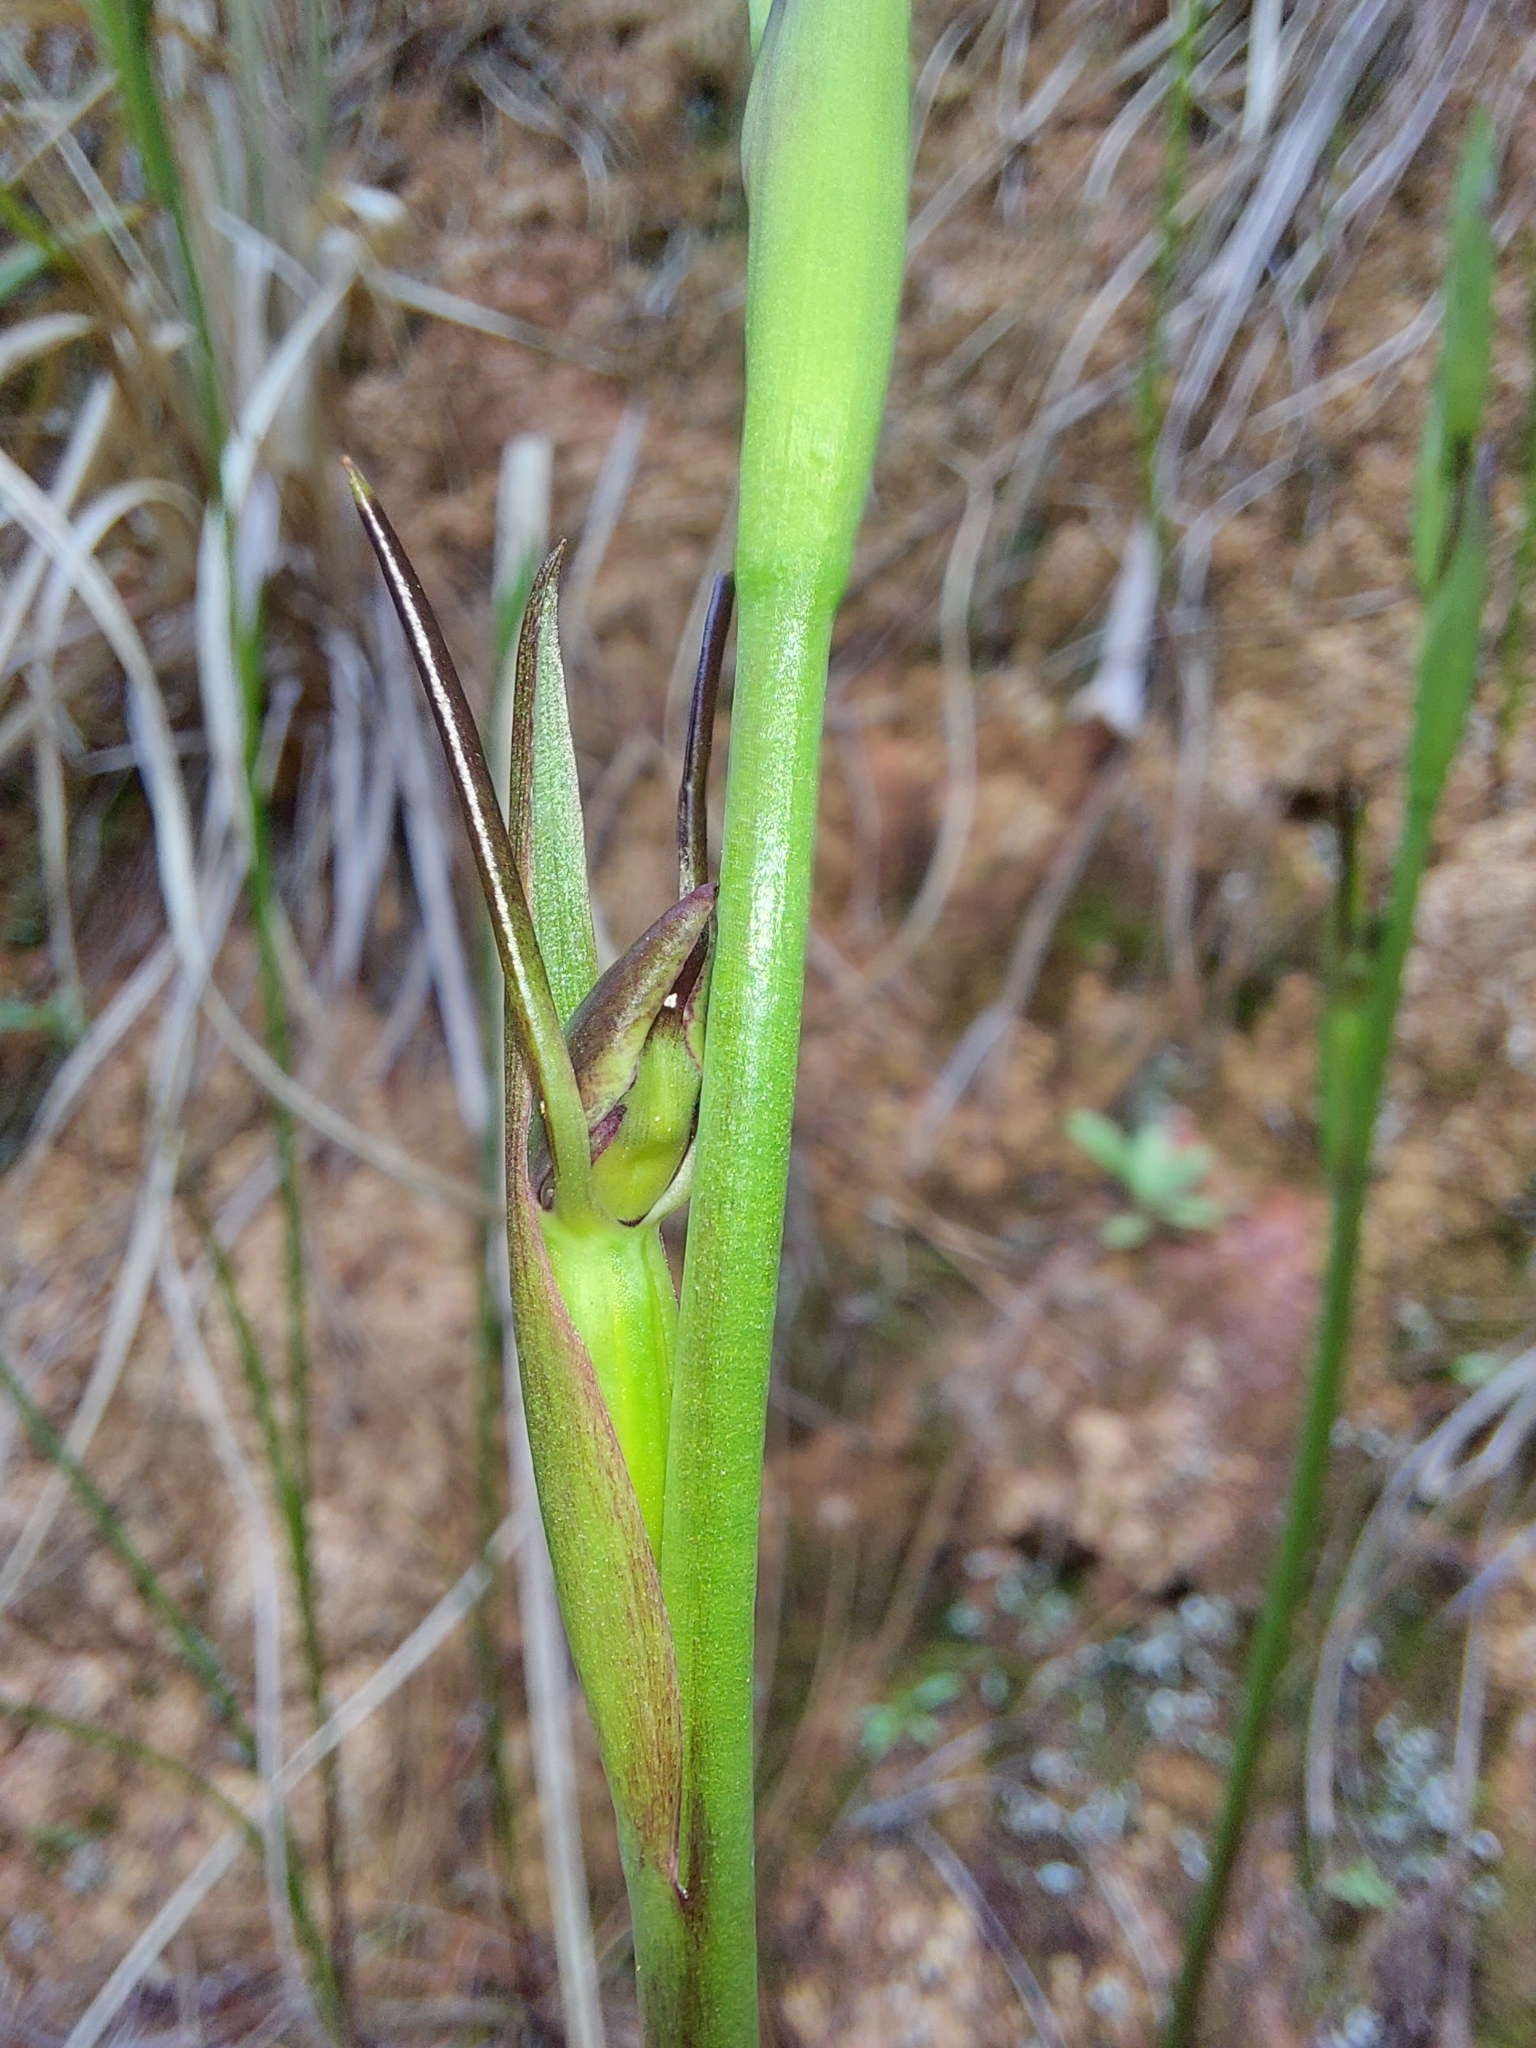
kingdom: Plantae
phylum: Tracheophyta
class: Liliopsida
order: Asparagales
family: Orchidaceae
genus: Orthoceras
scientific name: Orthoceras novae-zeelandiae
